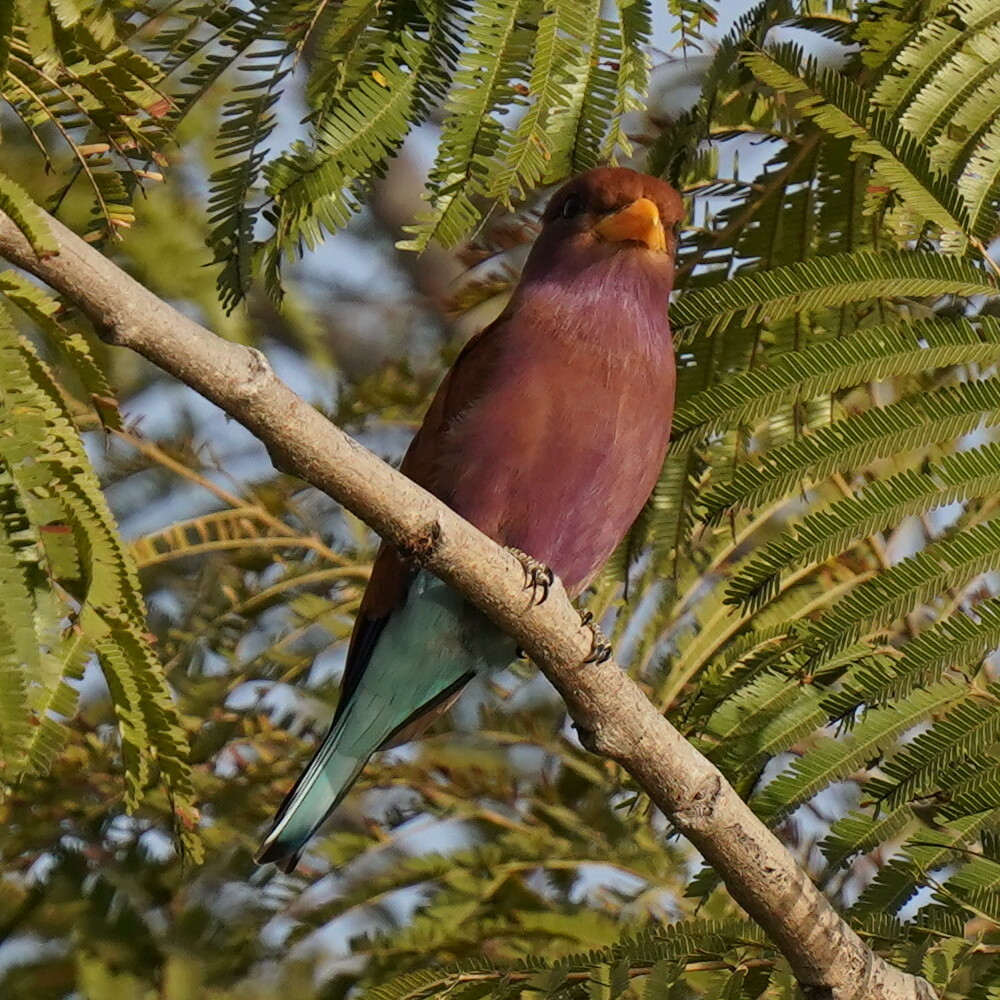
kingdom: Animalia
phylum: Chordata
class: Aves
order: Coraciiformes
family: Coraciidae
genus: Eurystomus
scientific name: Eurystomus glaucurus
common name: Broad-billed roller
